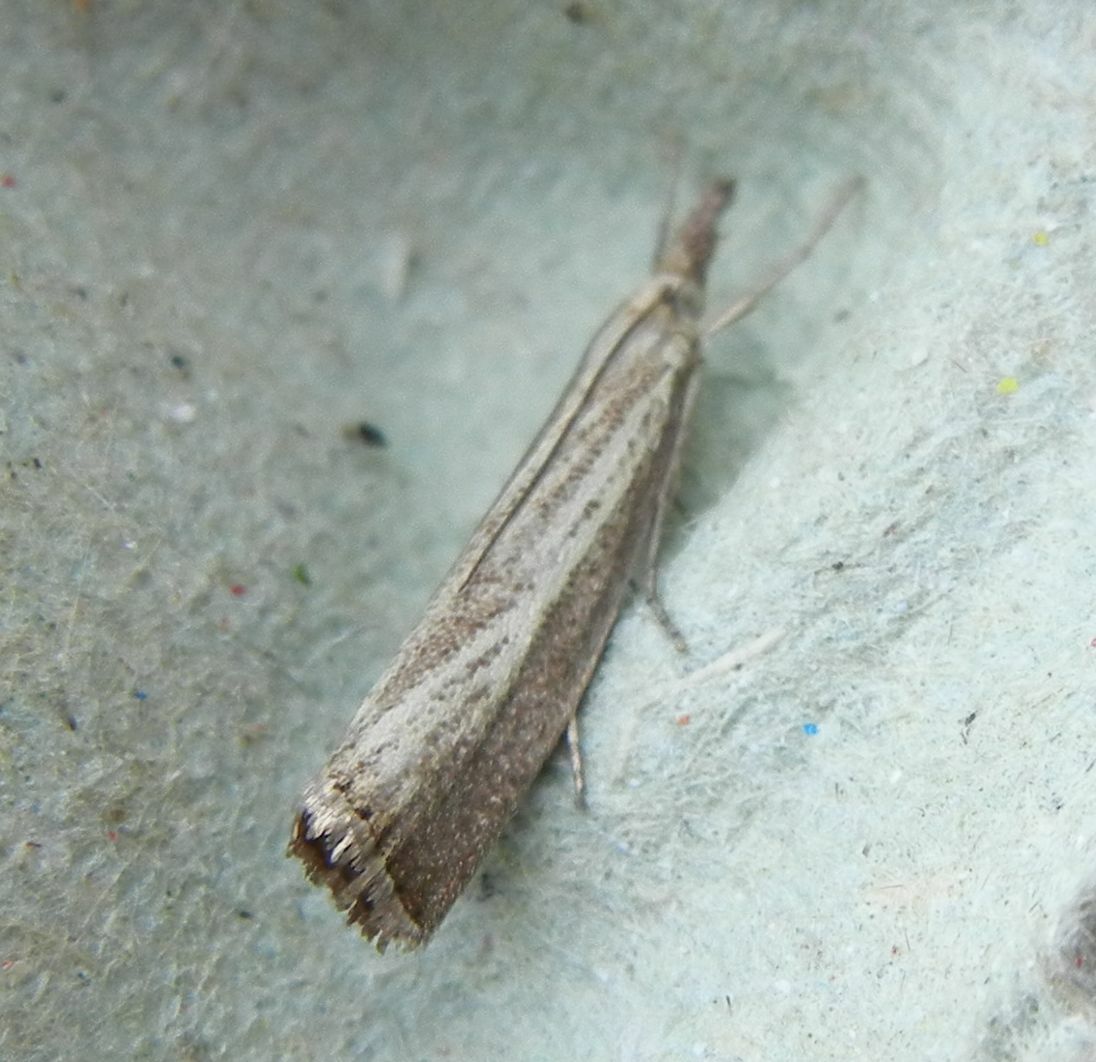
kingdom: Animalia
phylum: Arthropoda
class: Insecta
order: Lepidoptera
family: Crambidae
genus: Agriphila
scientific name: Agriphila straminella
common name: Straw grass-veneer
